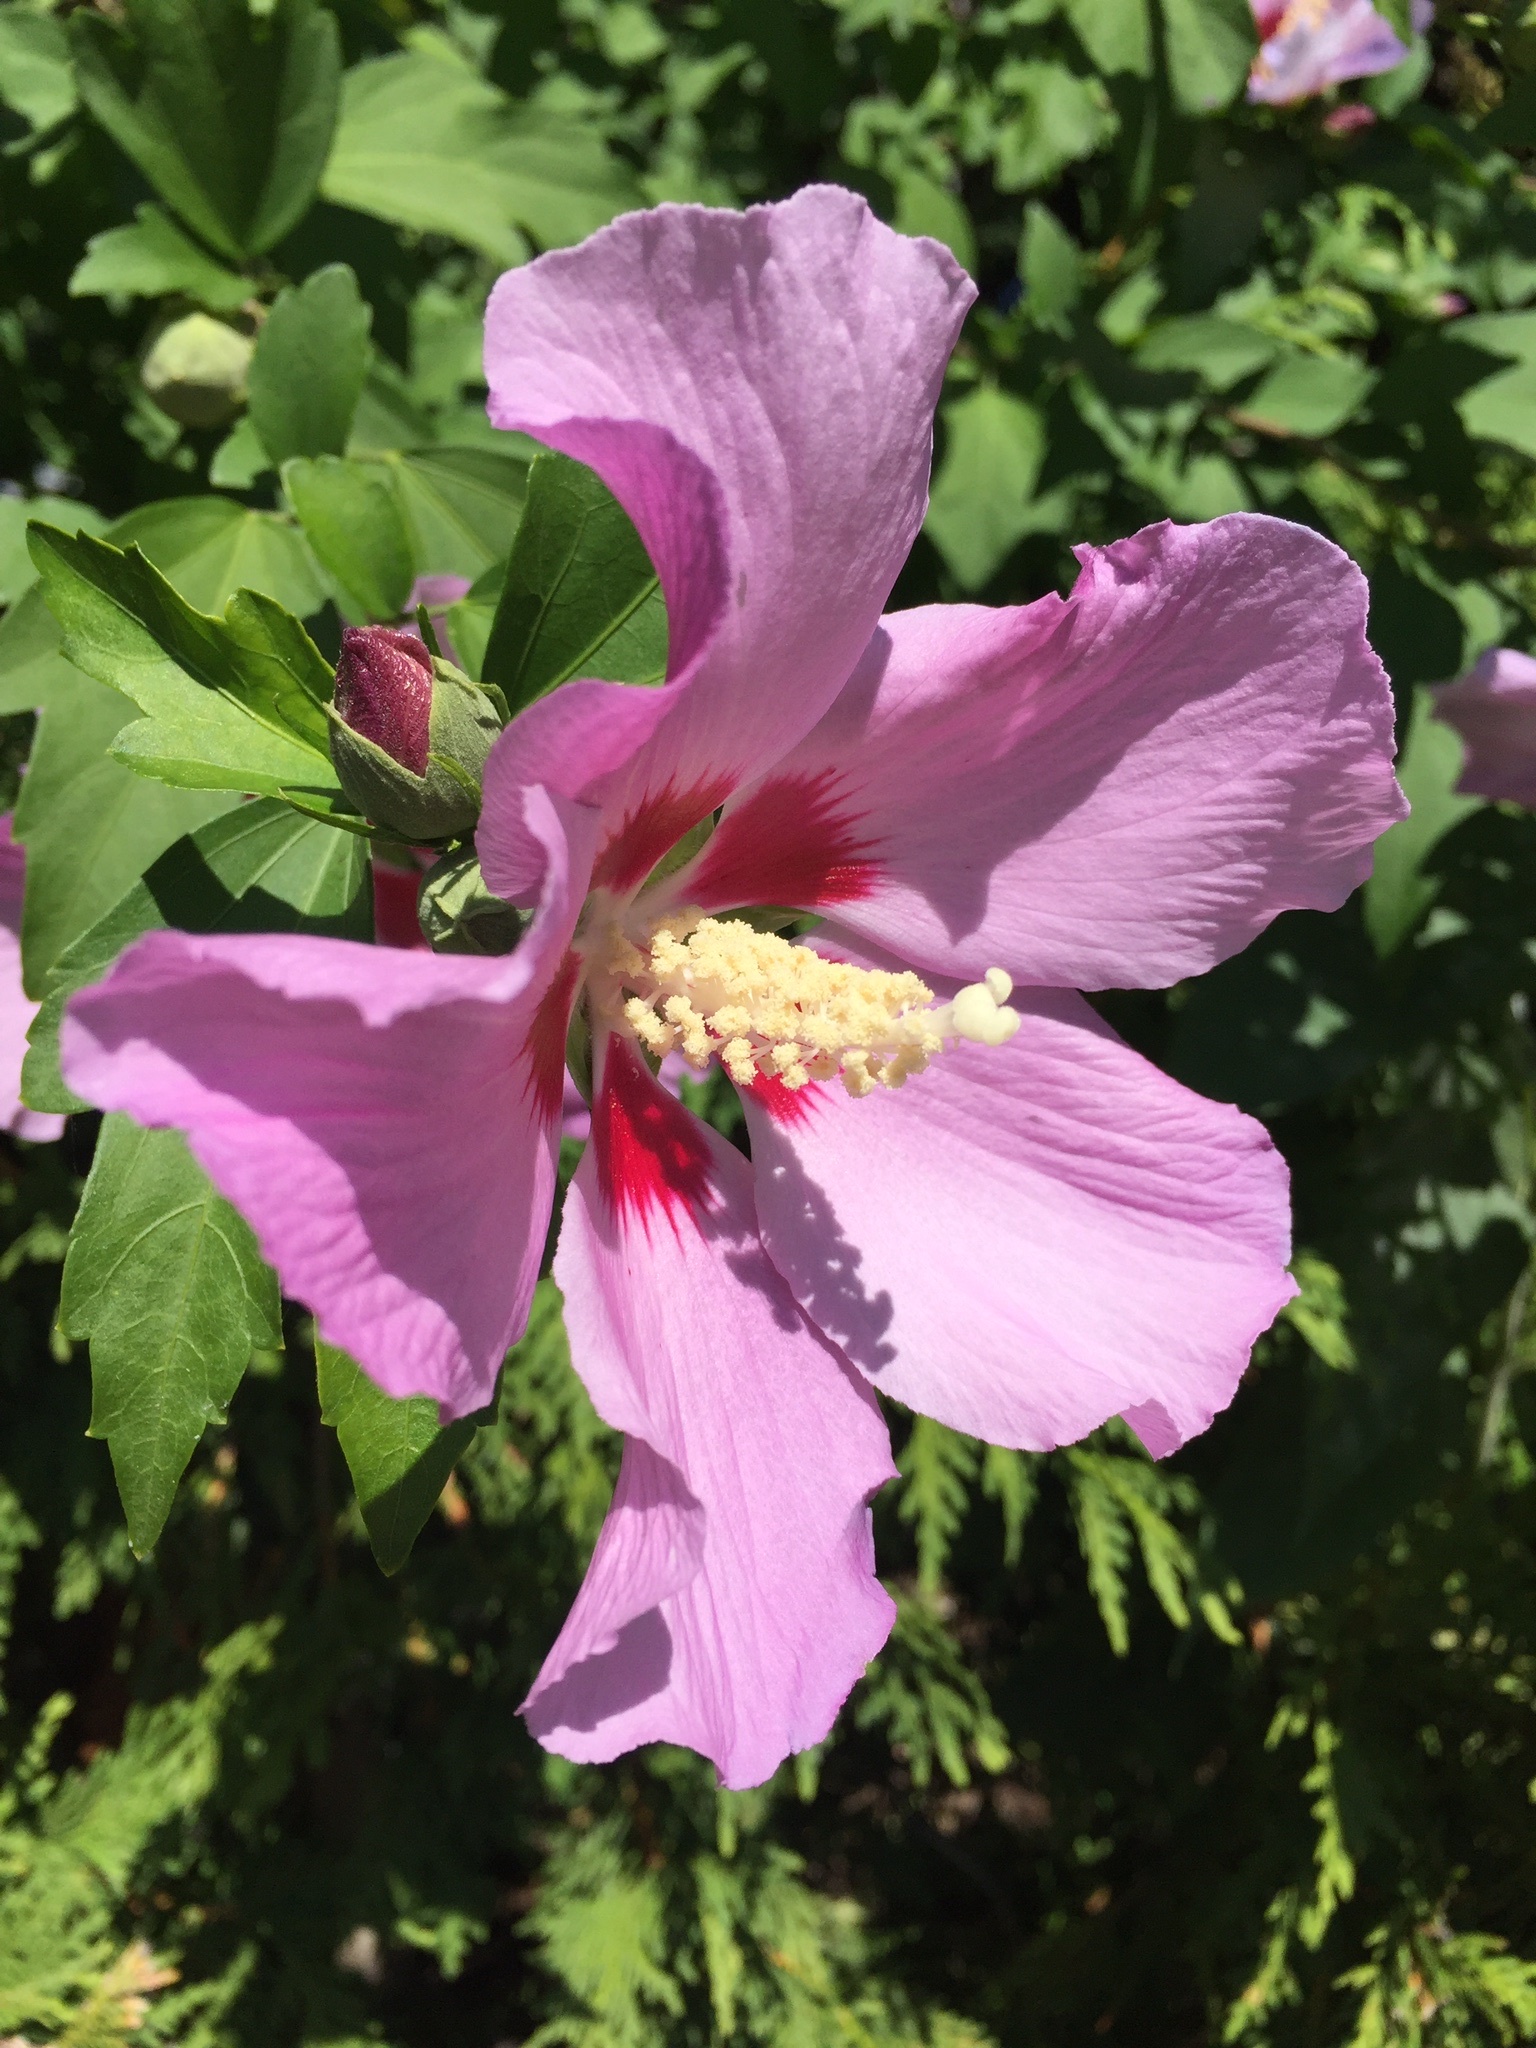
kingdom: Plantae
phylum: Tracheophyta
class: Magnoliopsida
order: Malvales
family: Malvaceae
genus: Hibiscus
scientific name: Hibiscus syriacus
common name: Syrian ketmia
